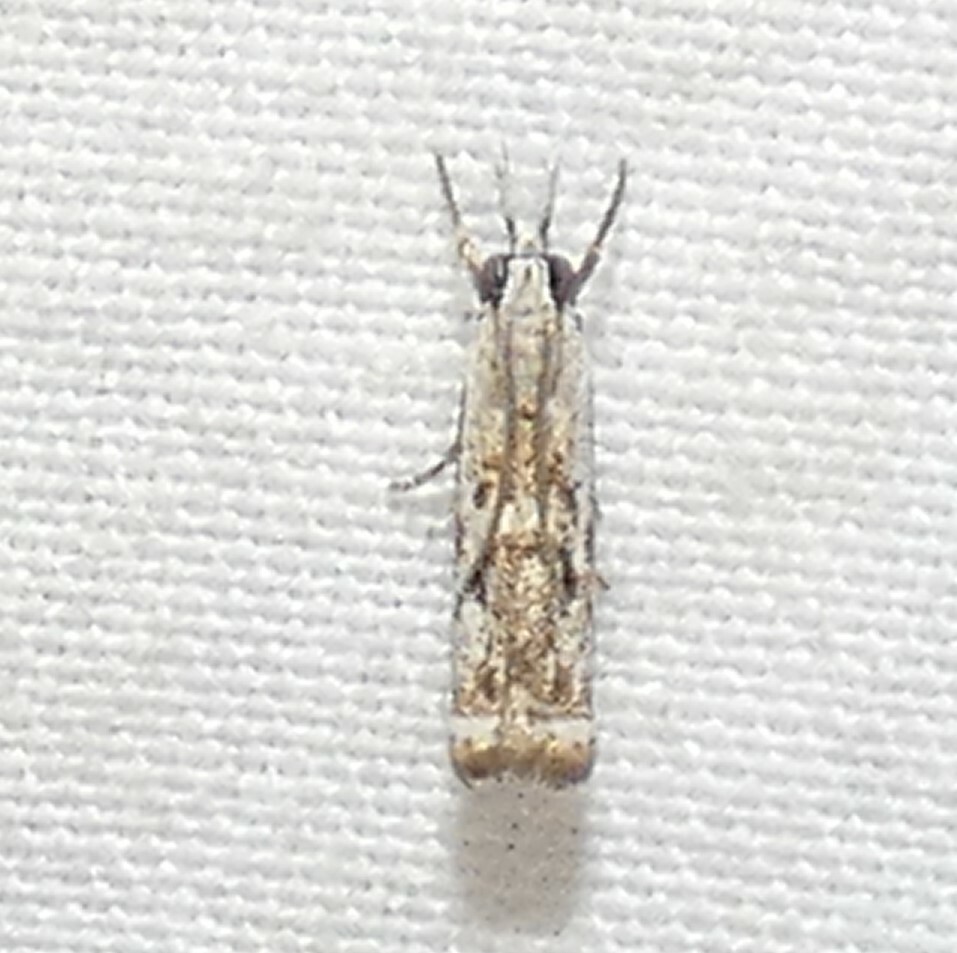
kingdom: Animalia
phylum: Arthropoda
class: Insecta
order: Lepidoptera
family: Crambidae
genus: Microcrambus
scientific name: Microcrambus immunellus
